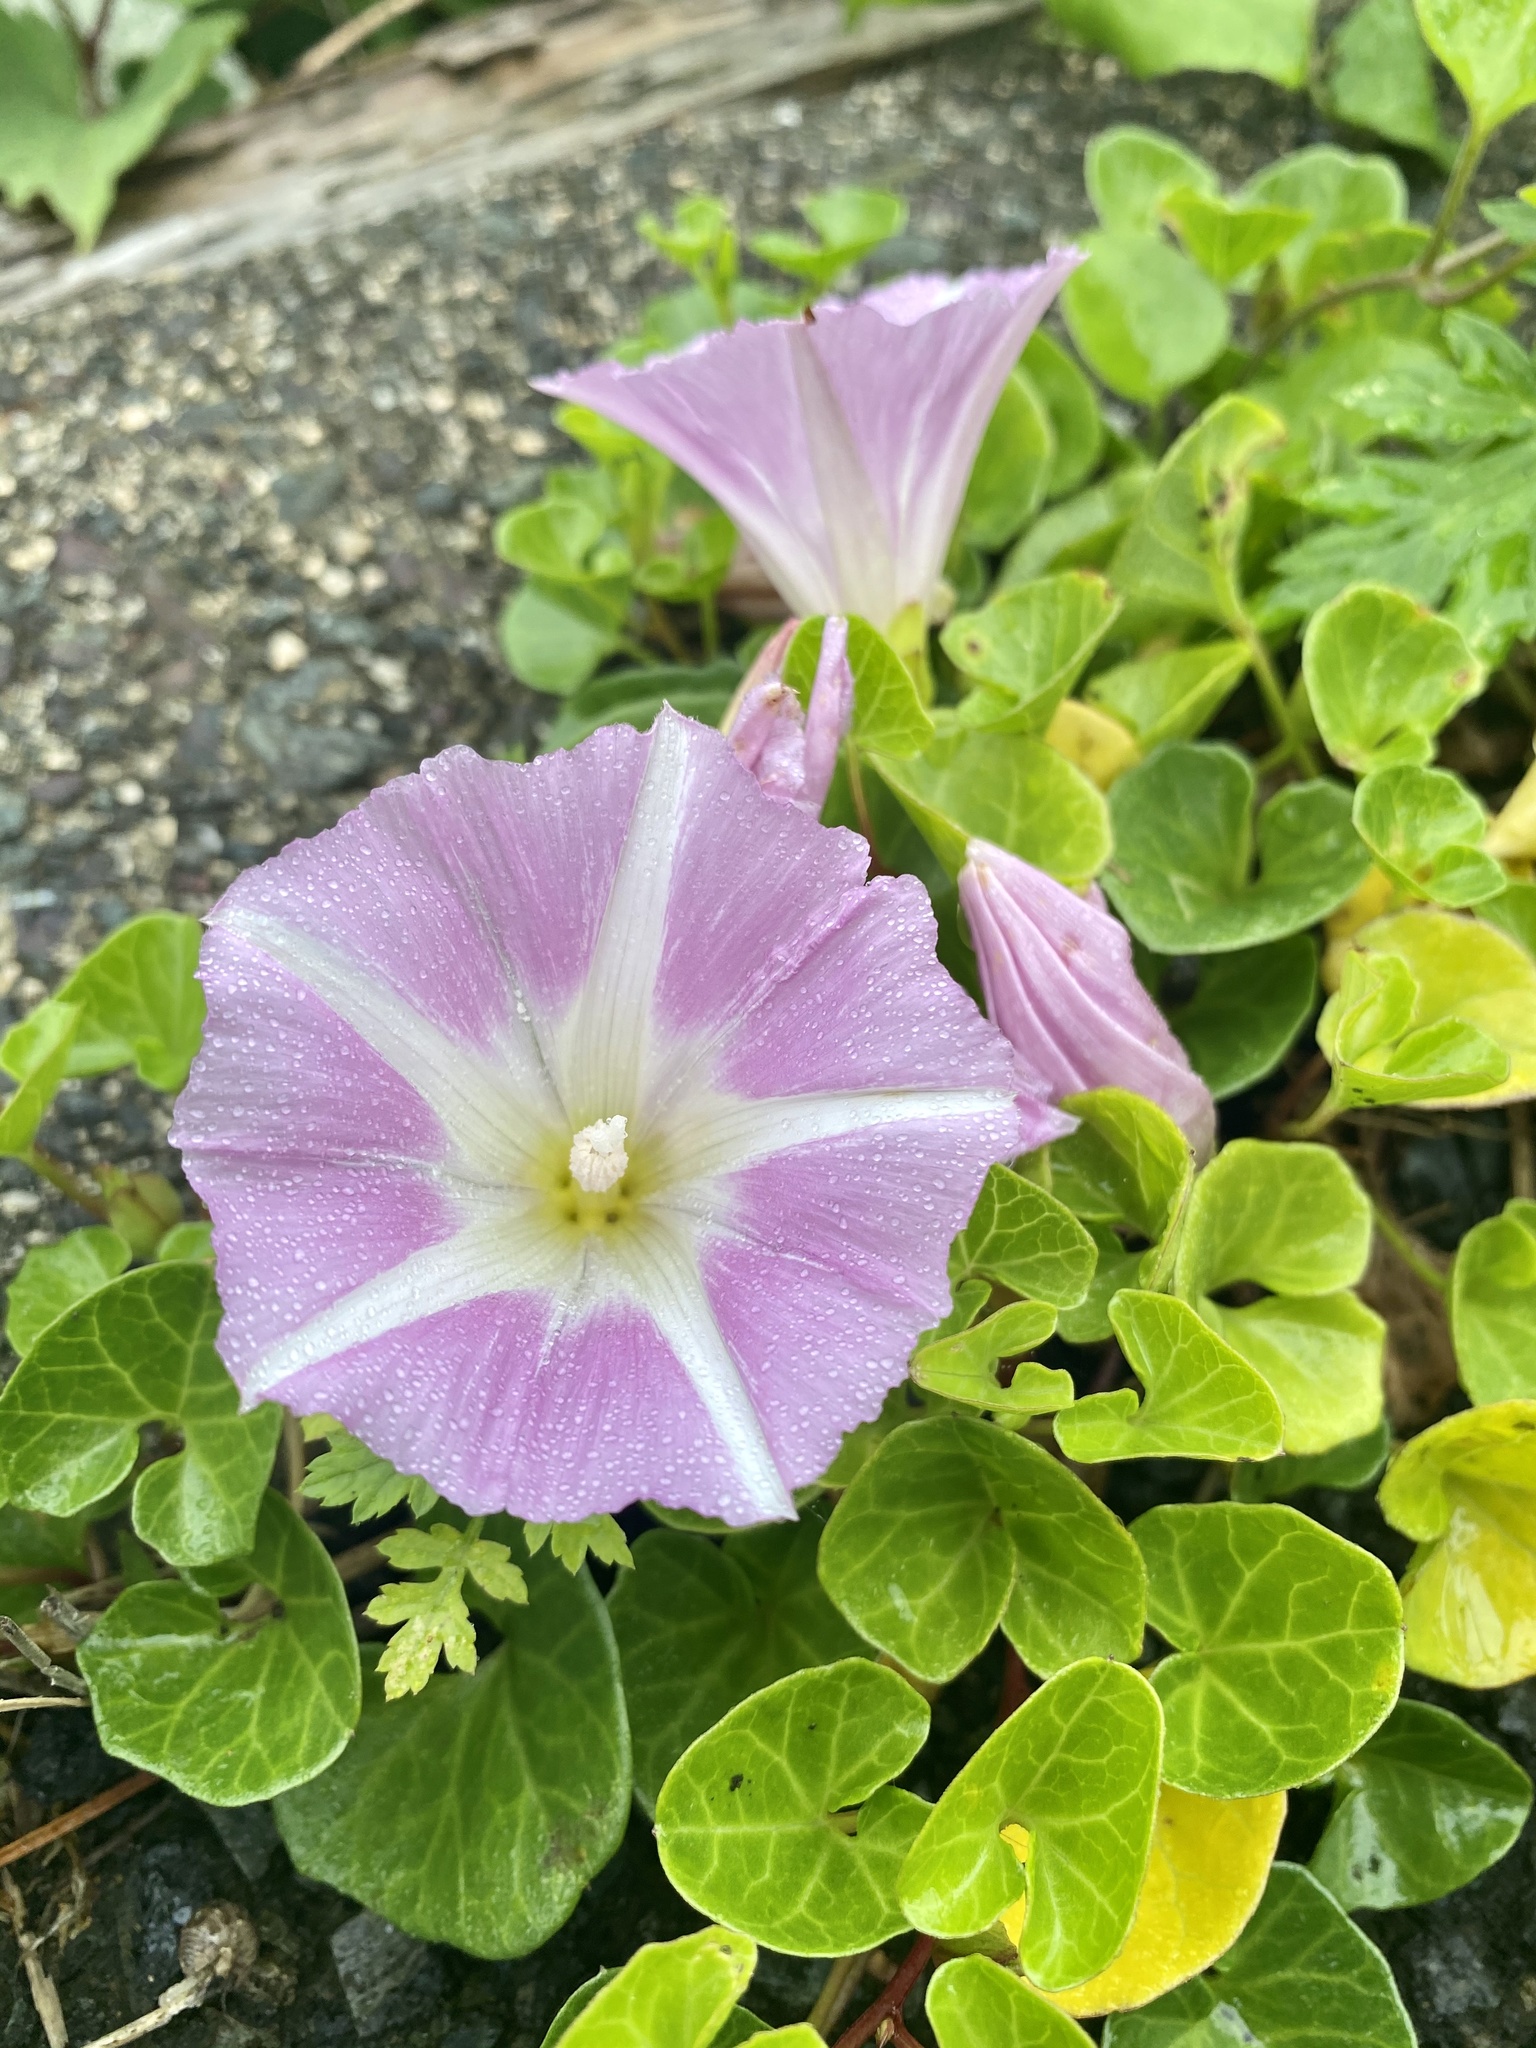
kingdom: Plantae
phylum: Tracheophyta
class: Magnoliopsida
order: Solanales
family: Convolvulaceae
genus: Calystegia
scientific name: Calystegia soldanella
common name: Sea bindweed
